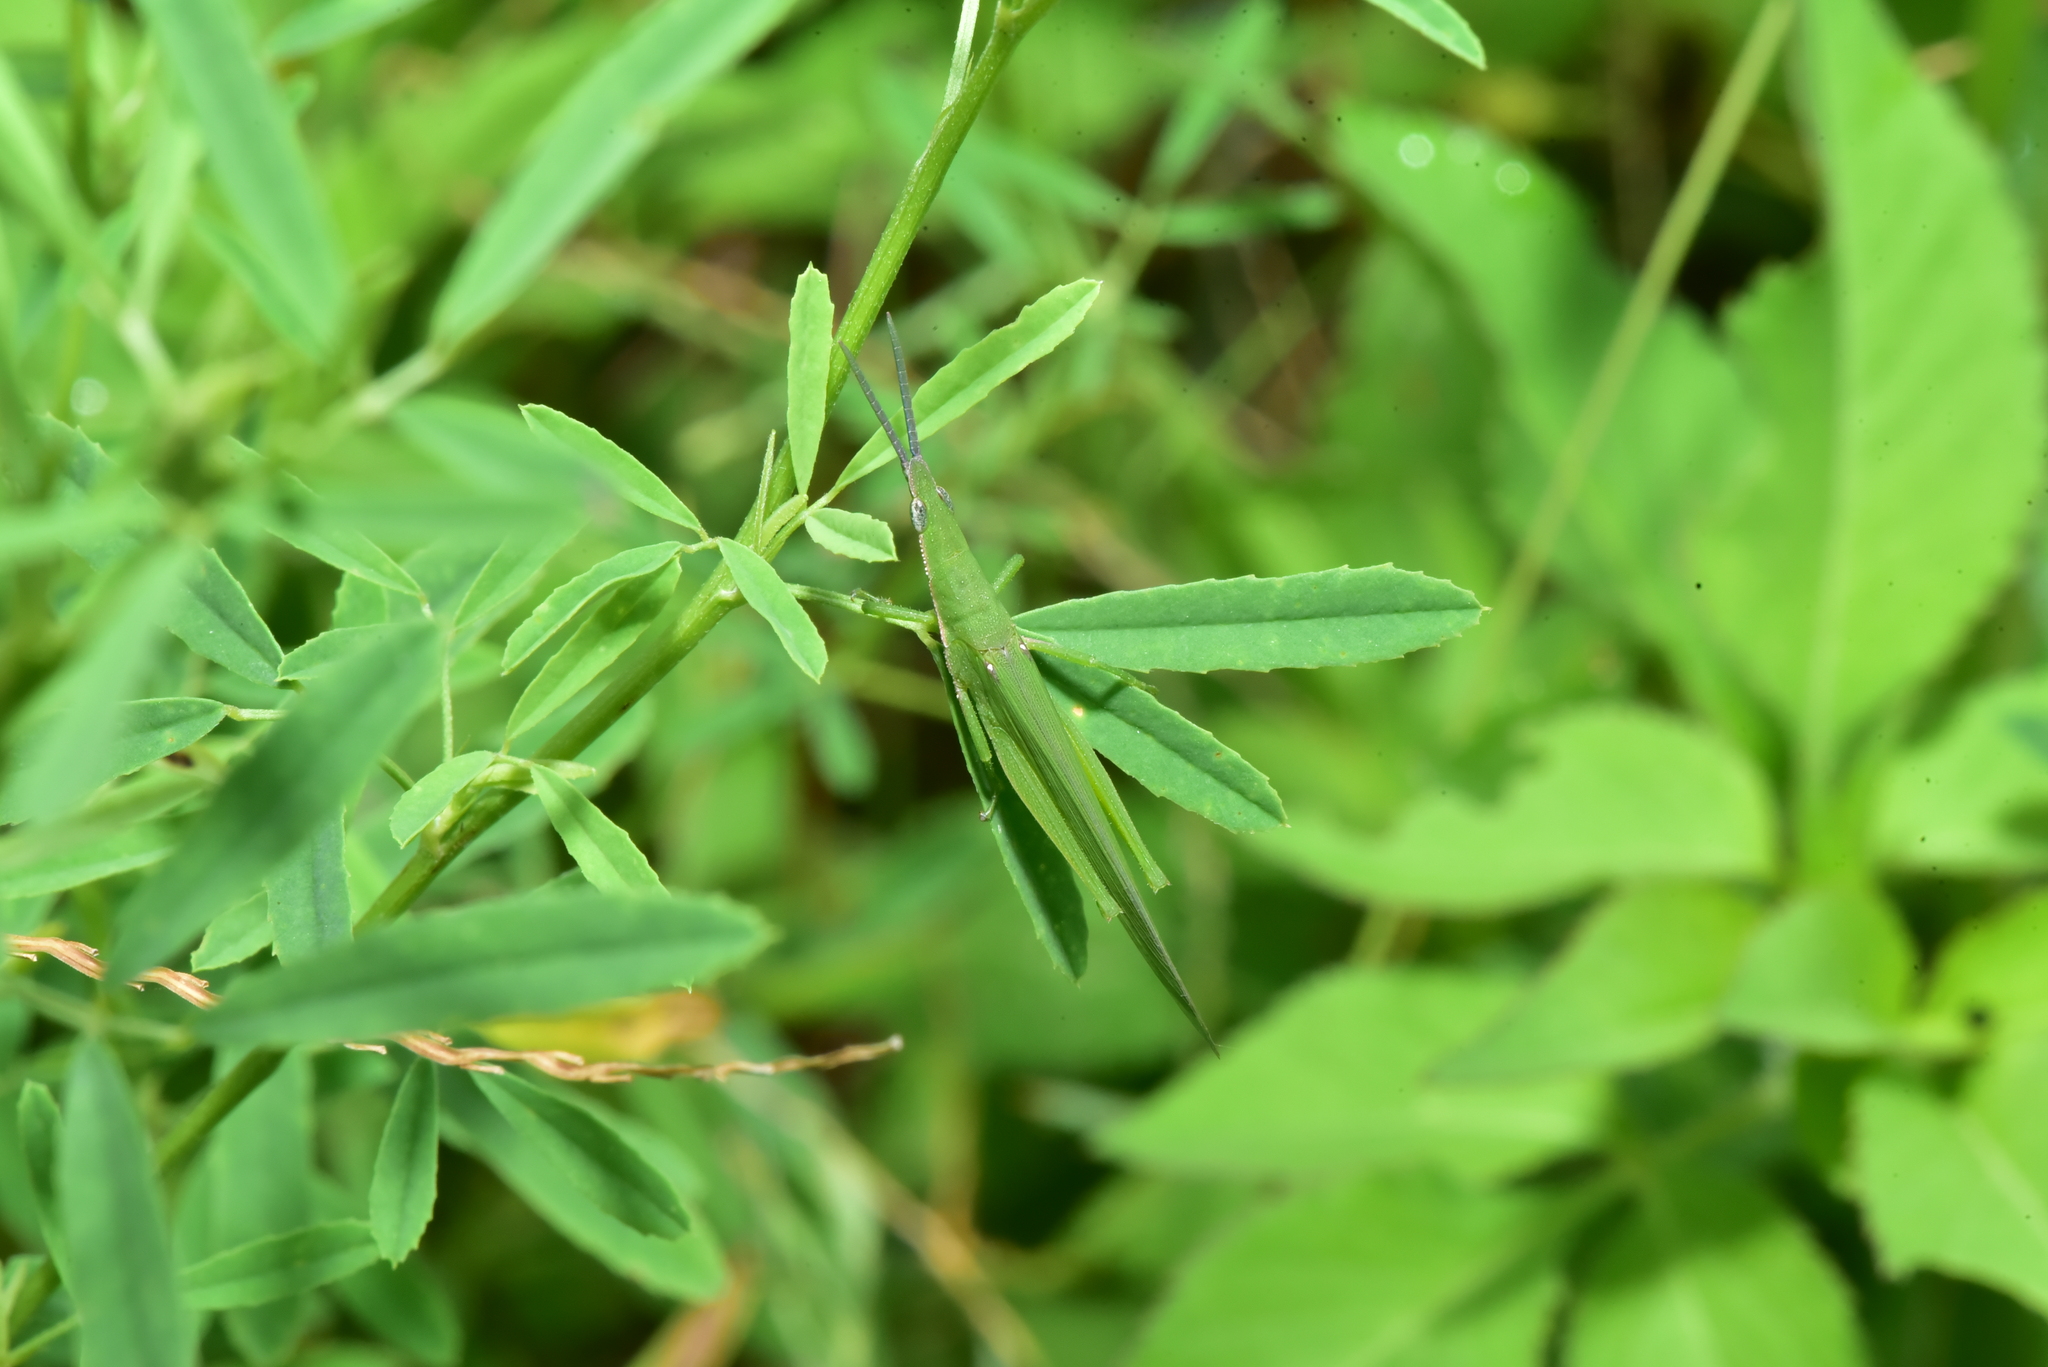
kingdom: Animalia
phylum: Arthropoda
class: Insecta
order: Orthoptera
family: Pyrgomorphidae
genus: Atractomorpha
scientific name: Atractomorpha sinensis
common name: Pinkwinged grasshopper
